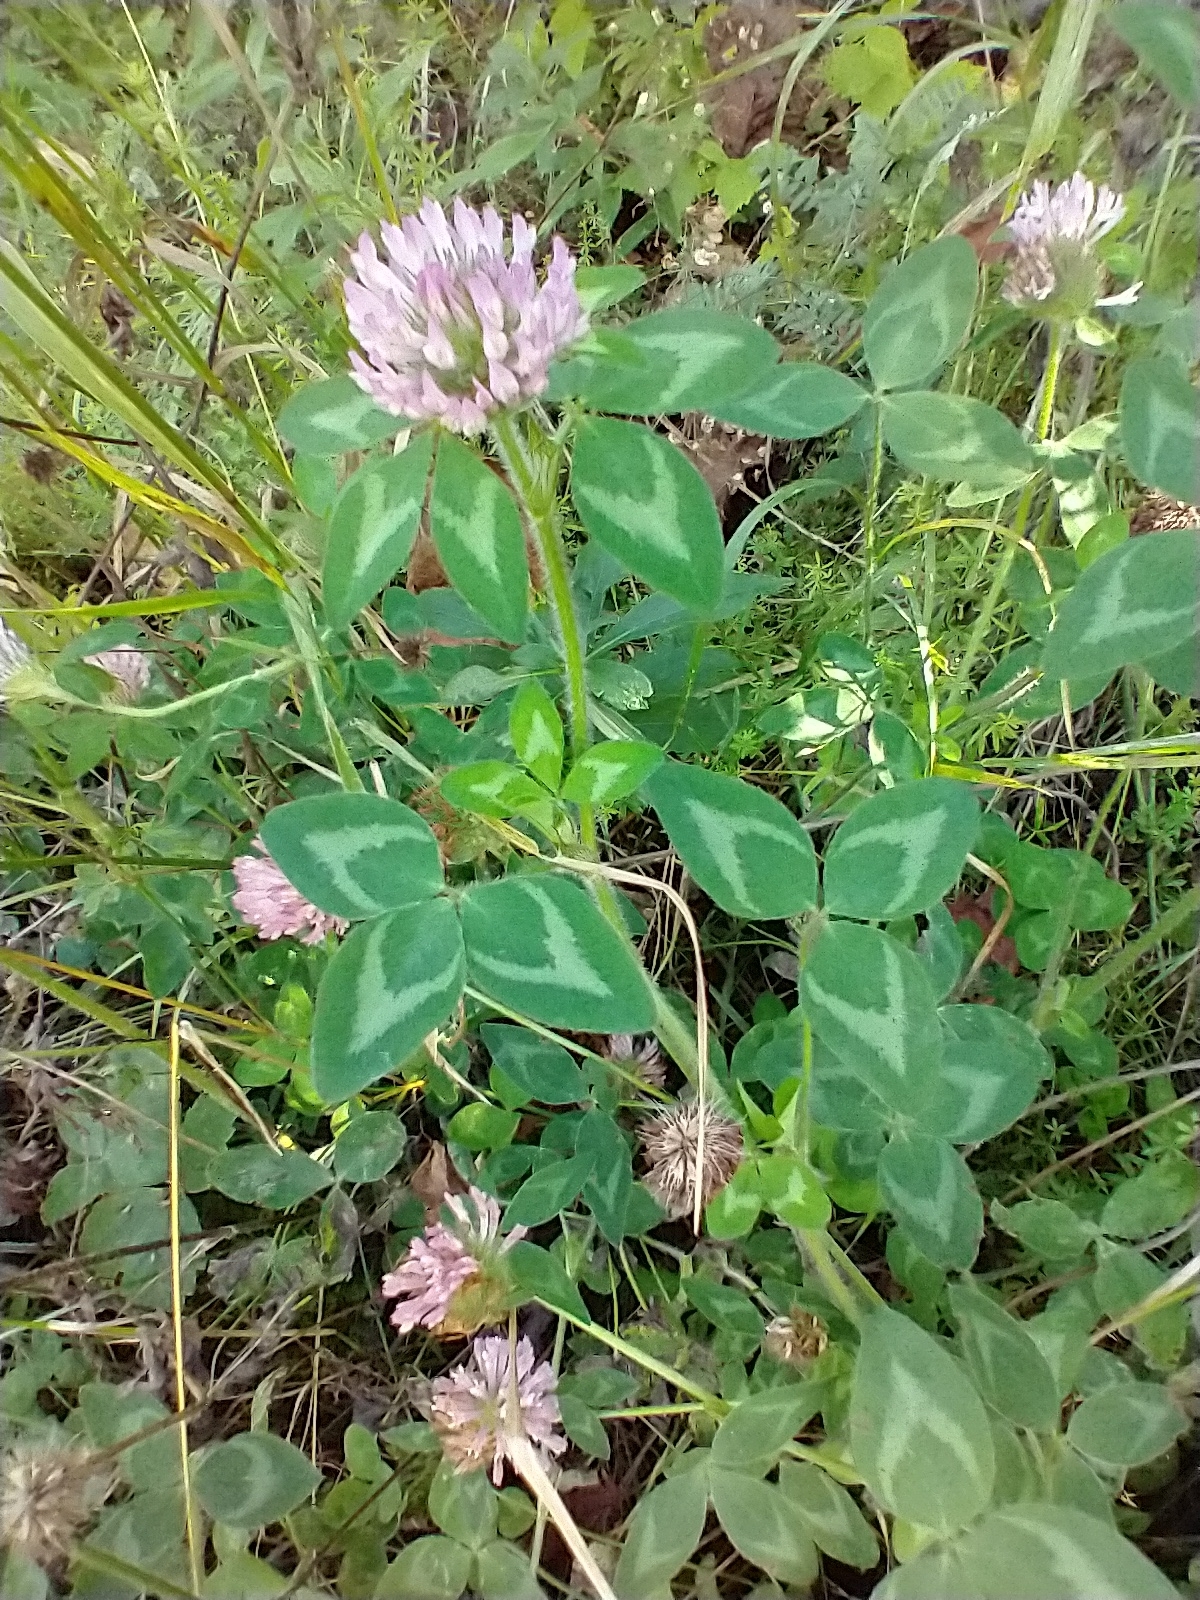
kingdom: Plantae
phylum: Tracheophyta
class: Magnoliopsida
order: Fabales
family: Fabaceae
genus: Trifolium
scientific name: Trifolium pratense
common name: Red clover
